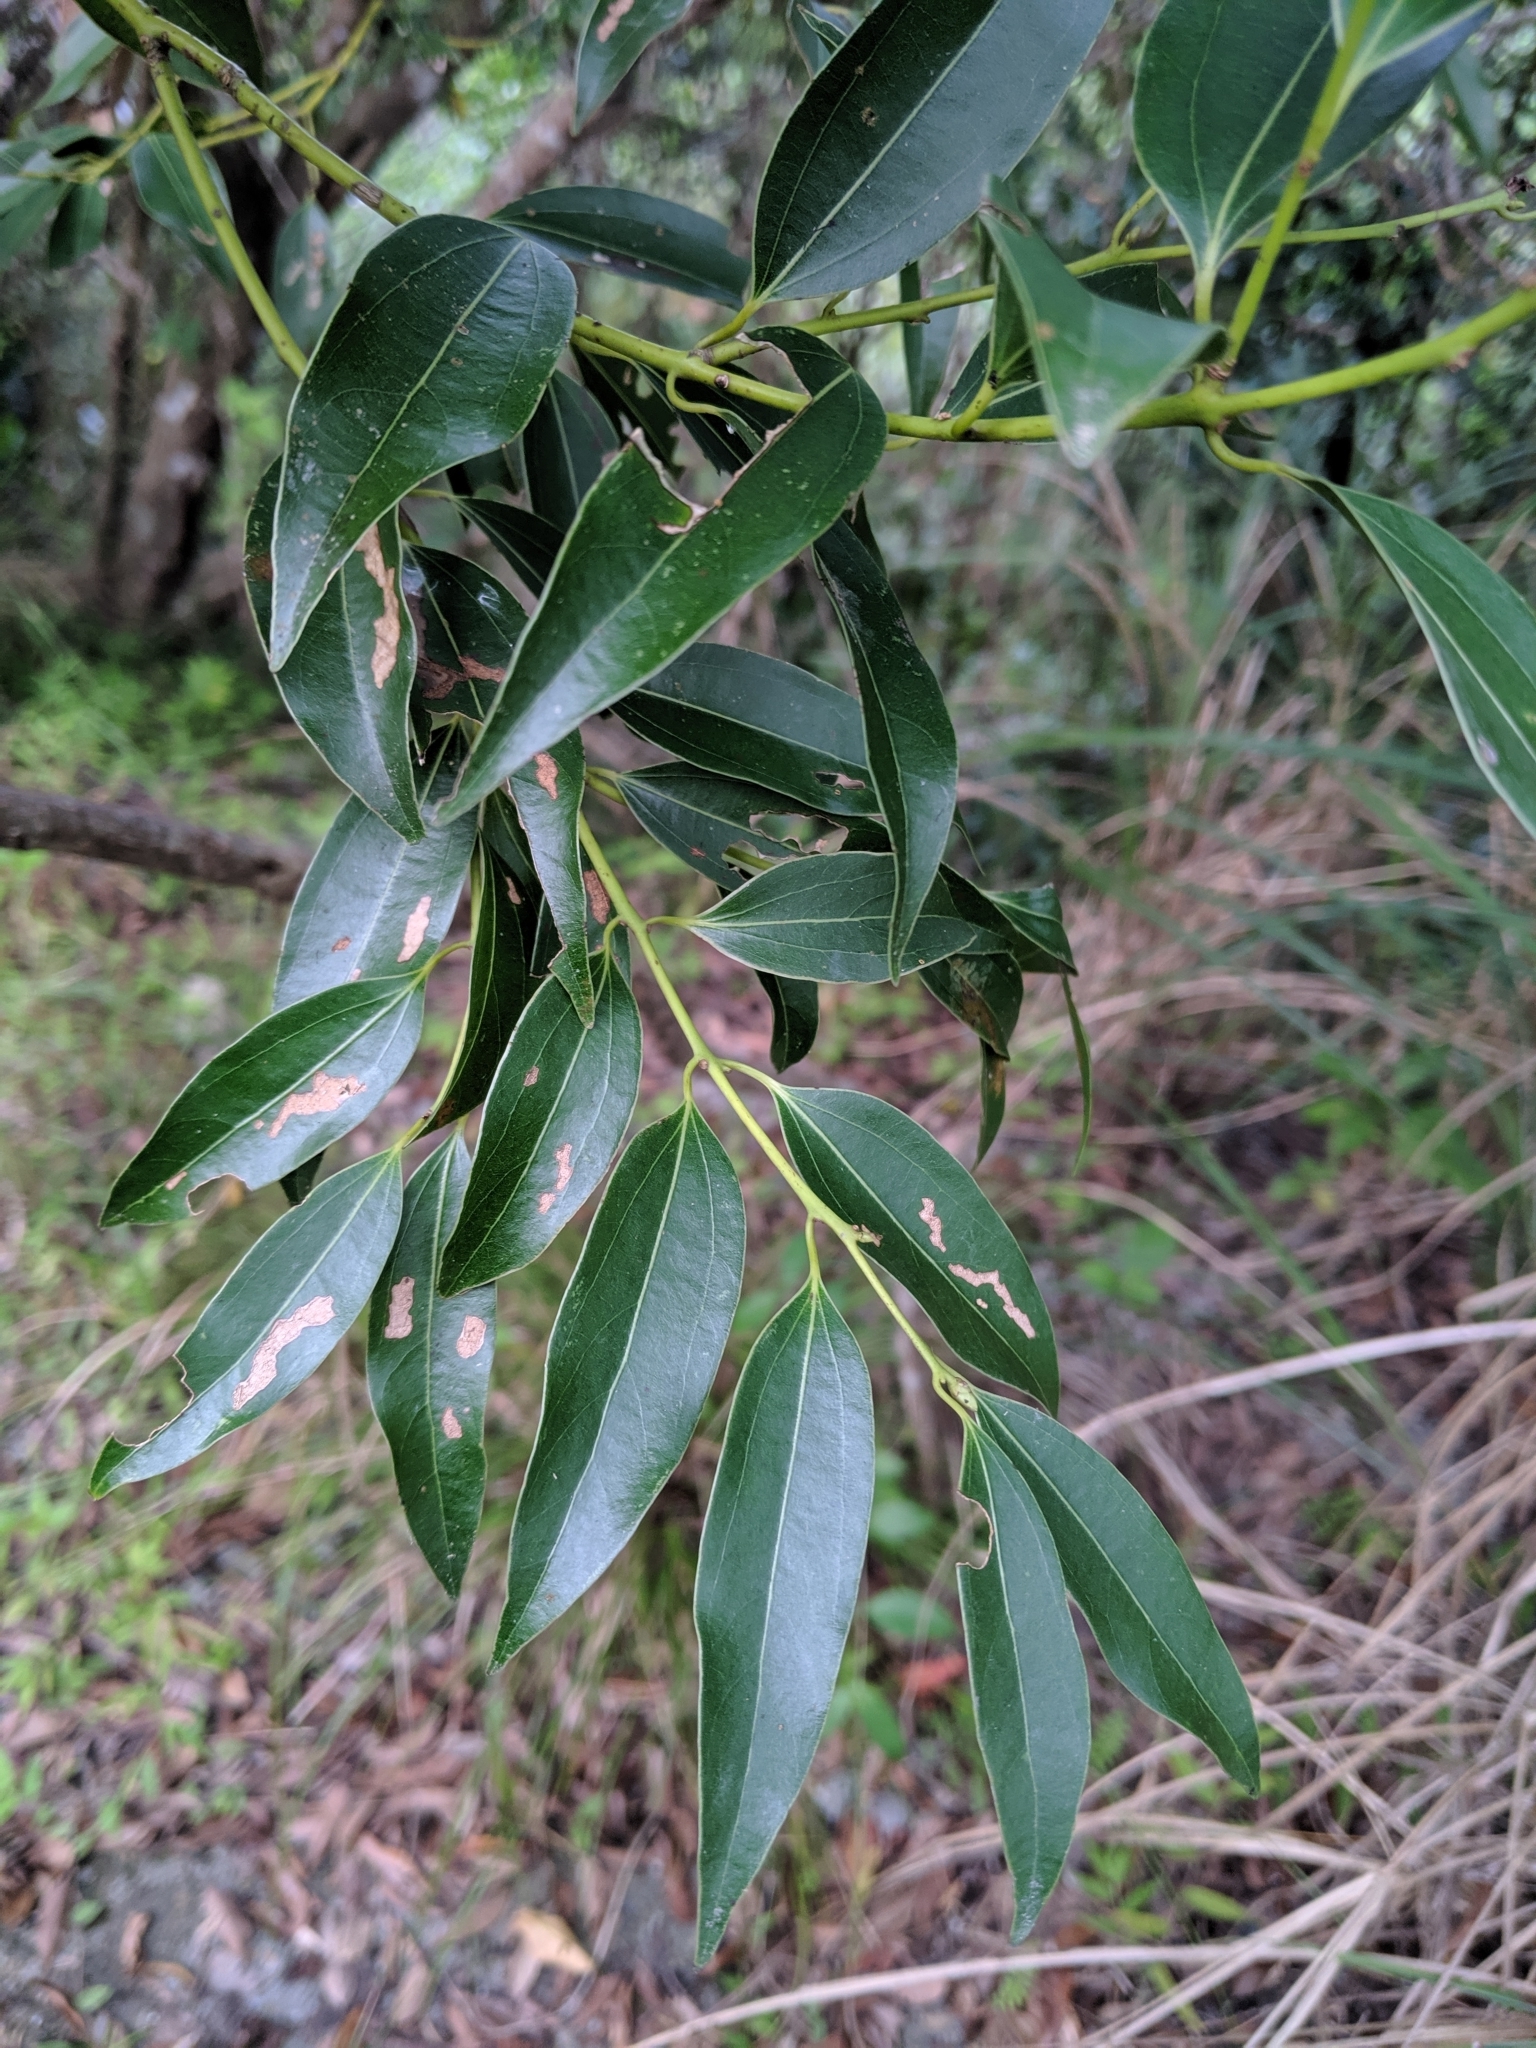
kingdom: Plantae
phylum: Tracheophyta
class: Magnoliopsida
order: Laurales
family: Lauraceae
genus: Cinnamomum
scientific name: Cinnamomum chekiangense
